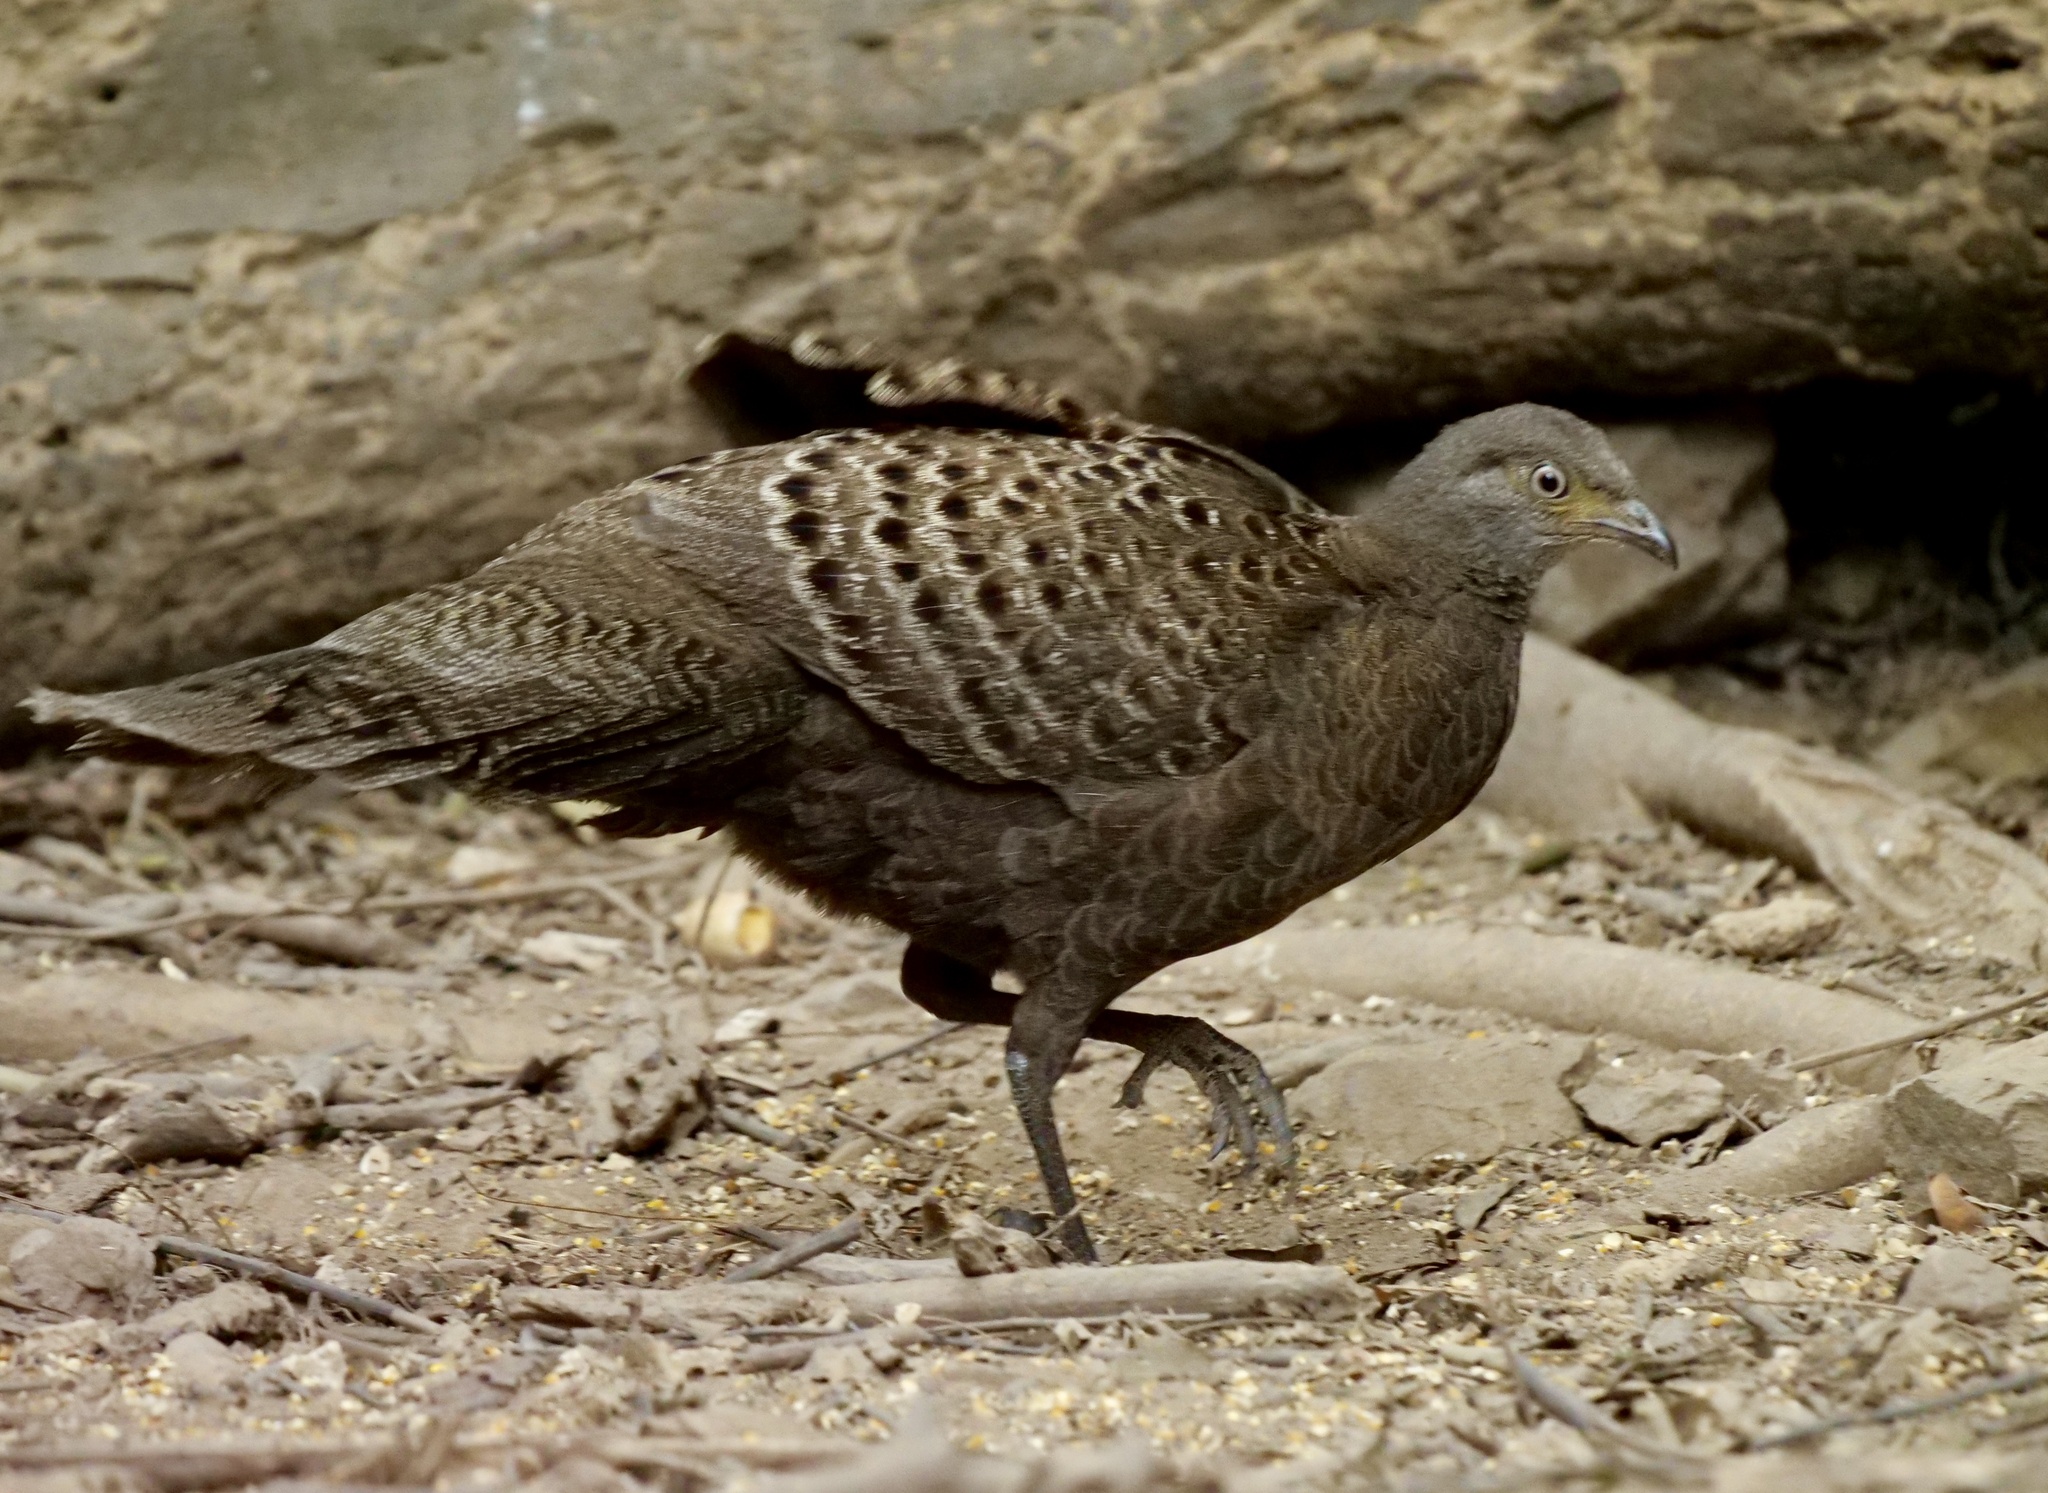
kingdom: Animalia
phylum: Chordata
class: Aves
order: Galliformes
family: Phasianidae
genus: Polyplectron
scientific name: Polyplectron bicalcaratum
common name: Grey peacock-pheasant
